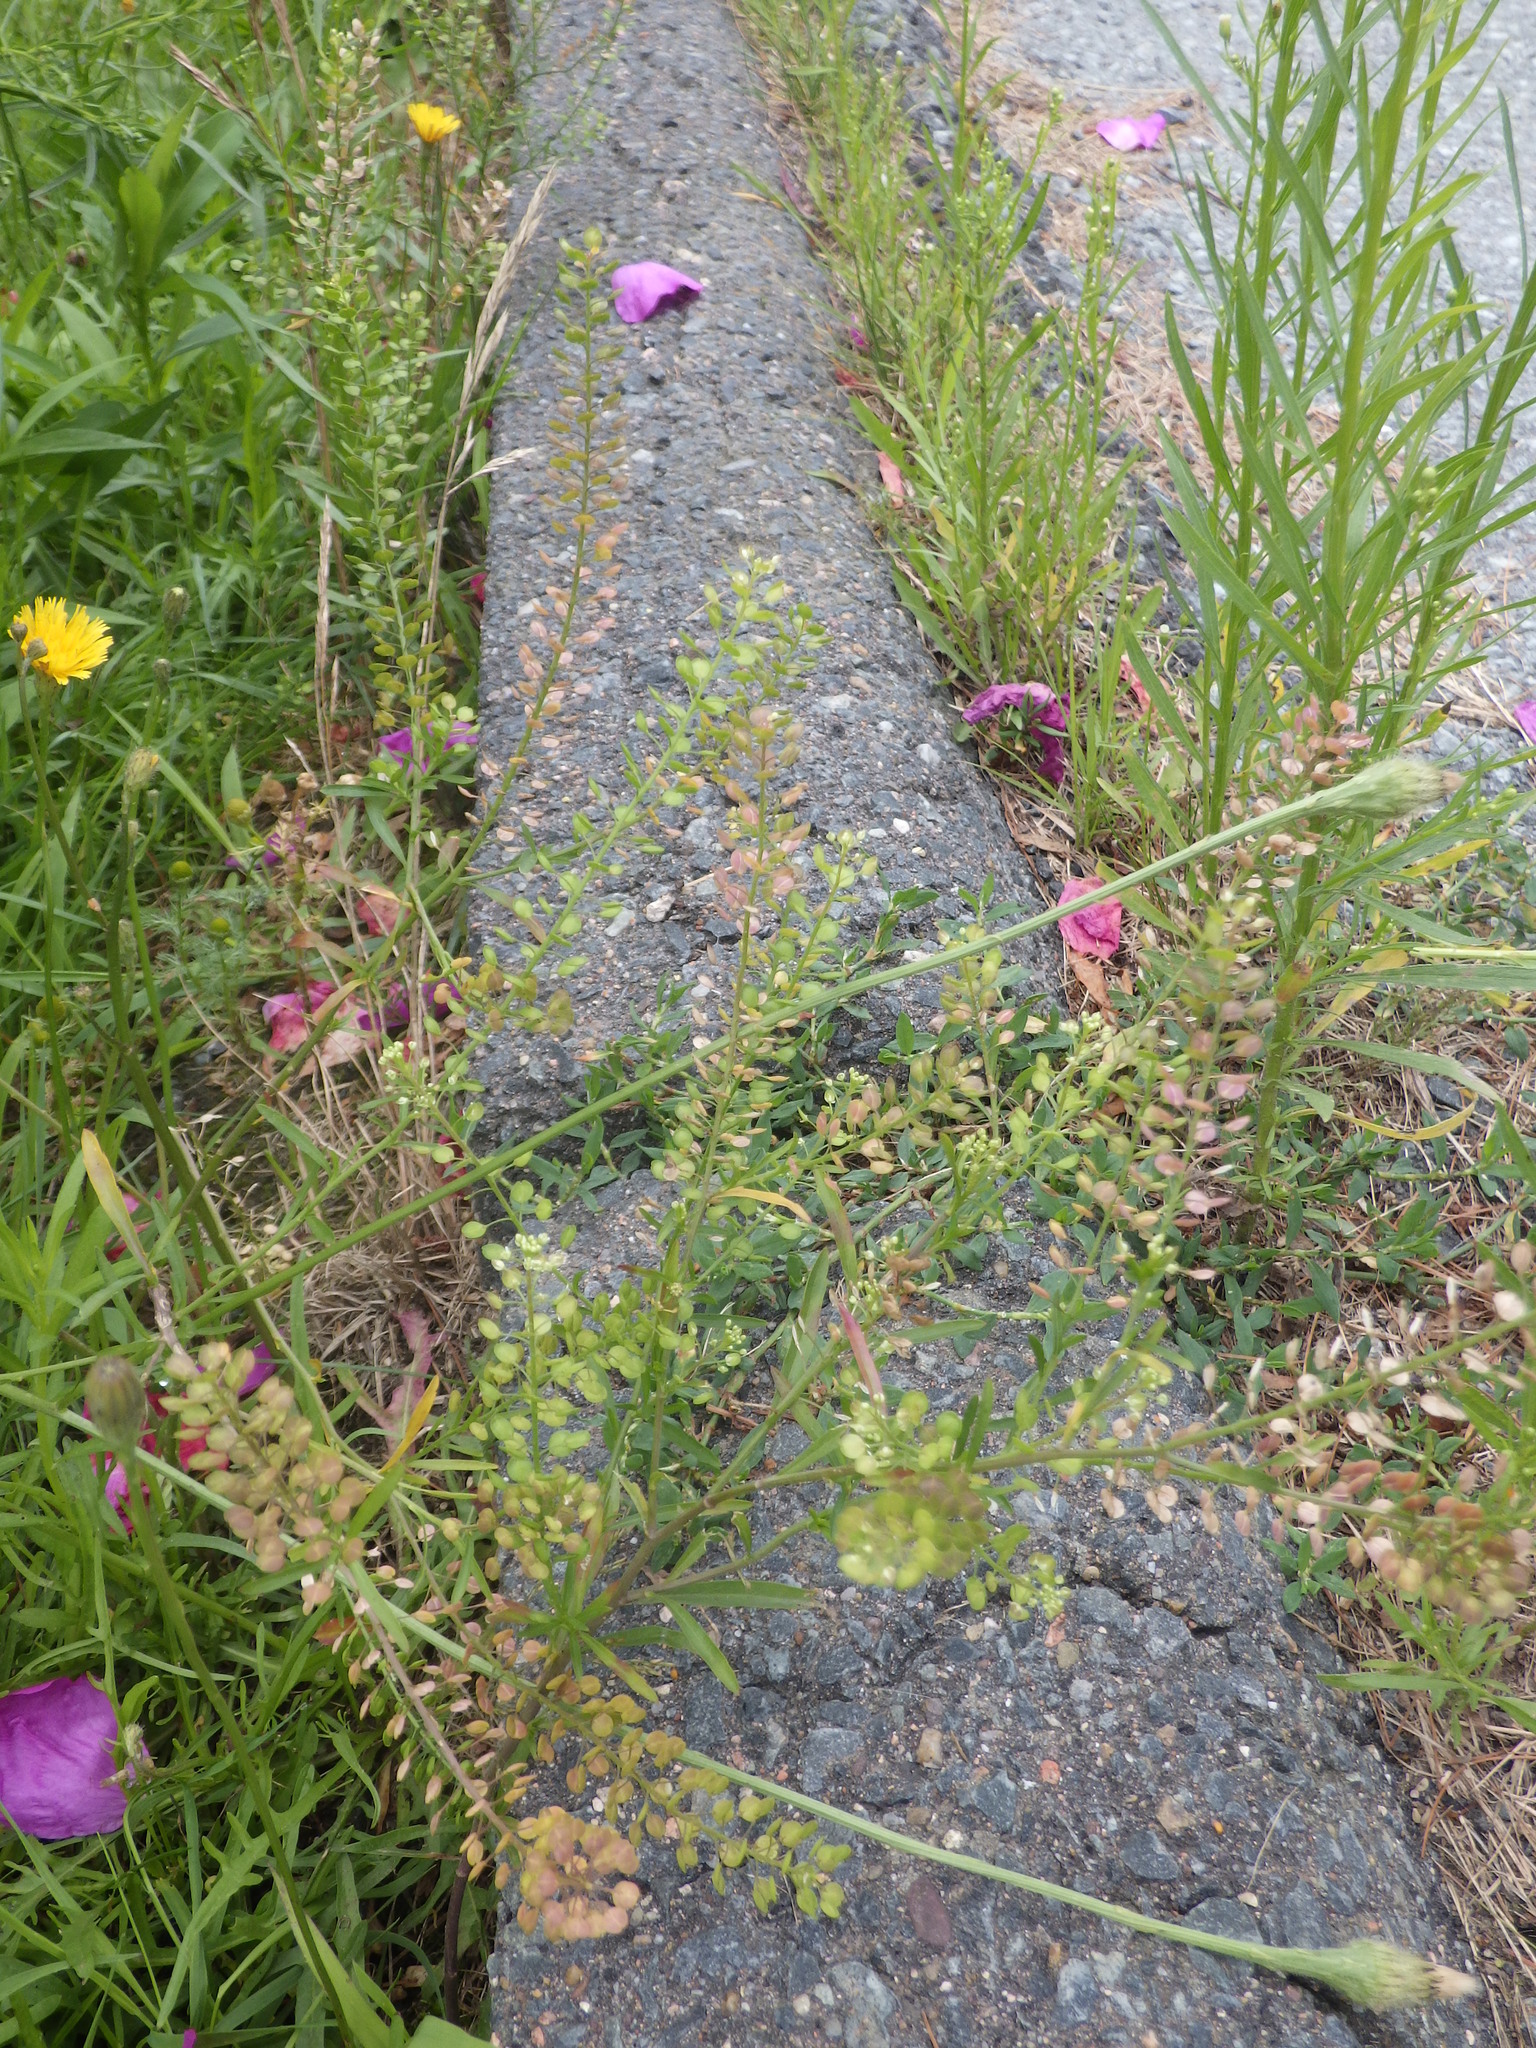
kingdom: Plantae
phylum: Tracheophyta
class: Magnoliopsida
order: Brassicales
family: Brassicaceae
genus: Lepidium
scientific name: Lepidium virginicum
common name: Least pepperwort
